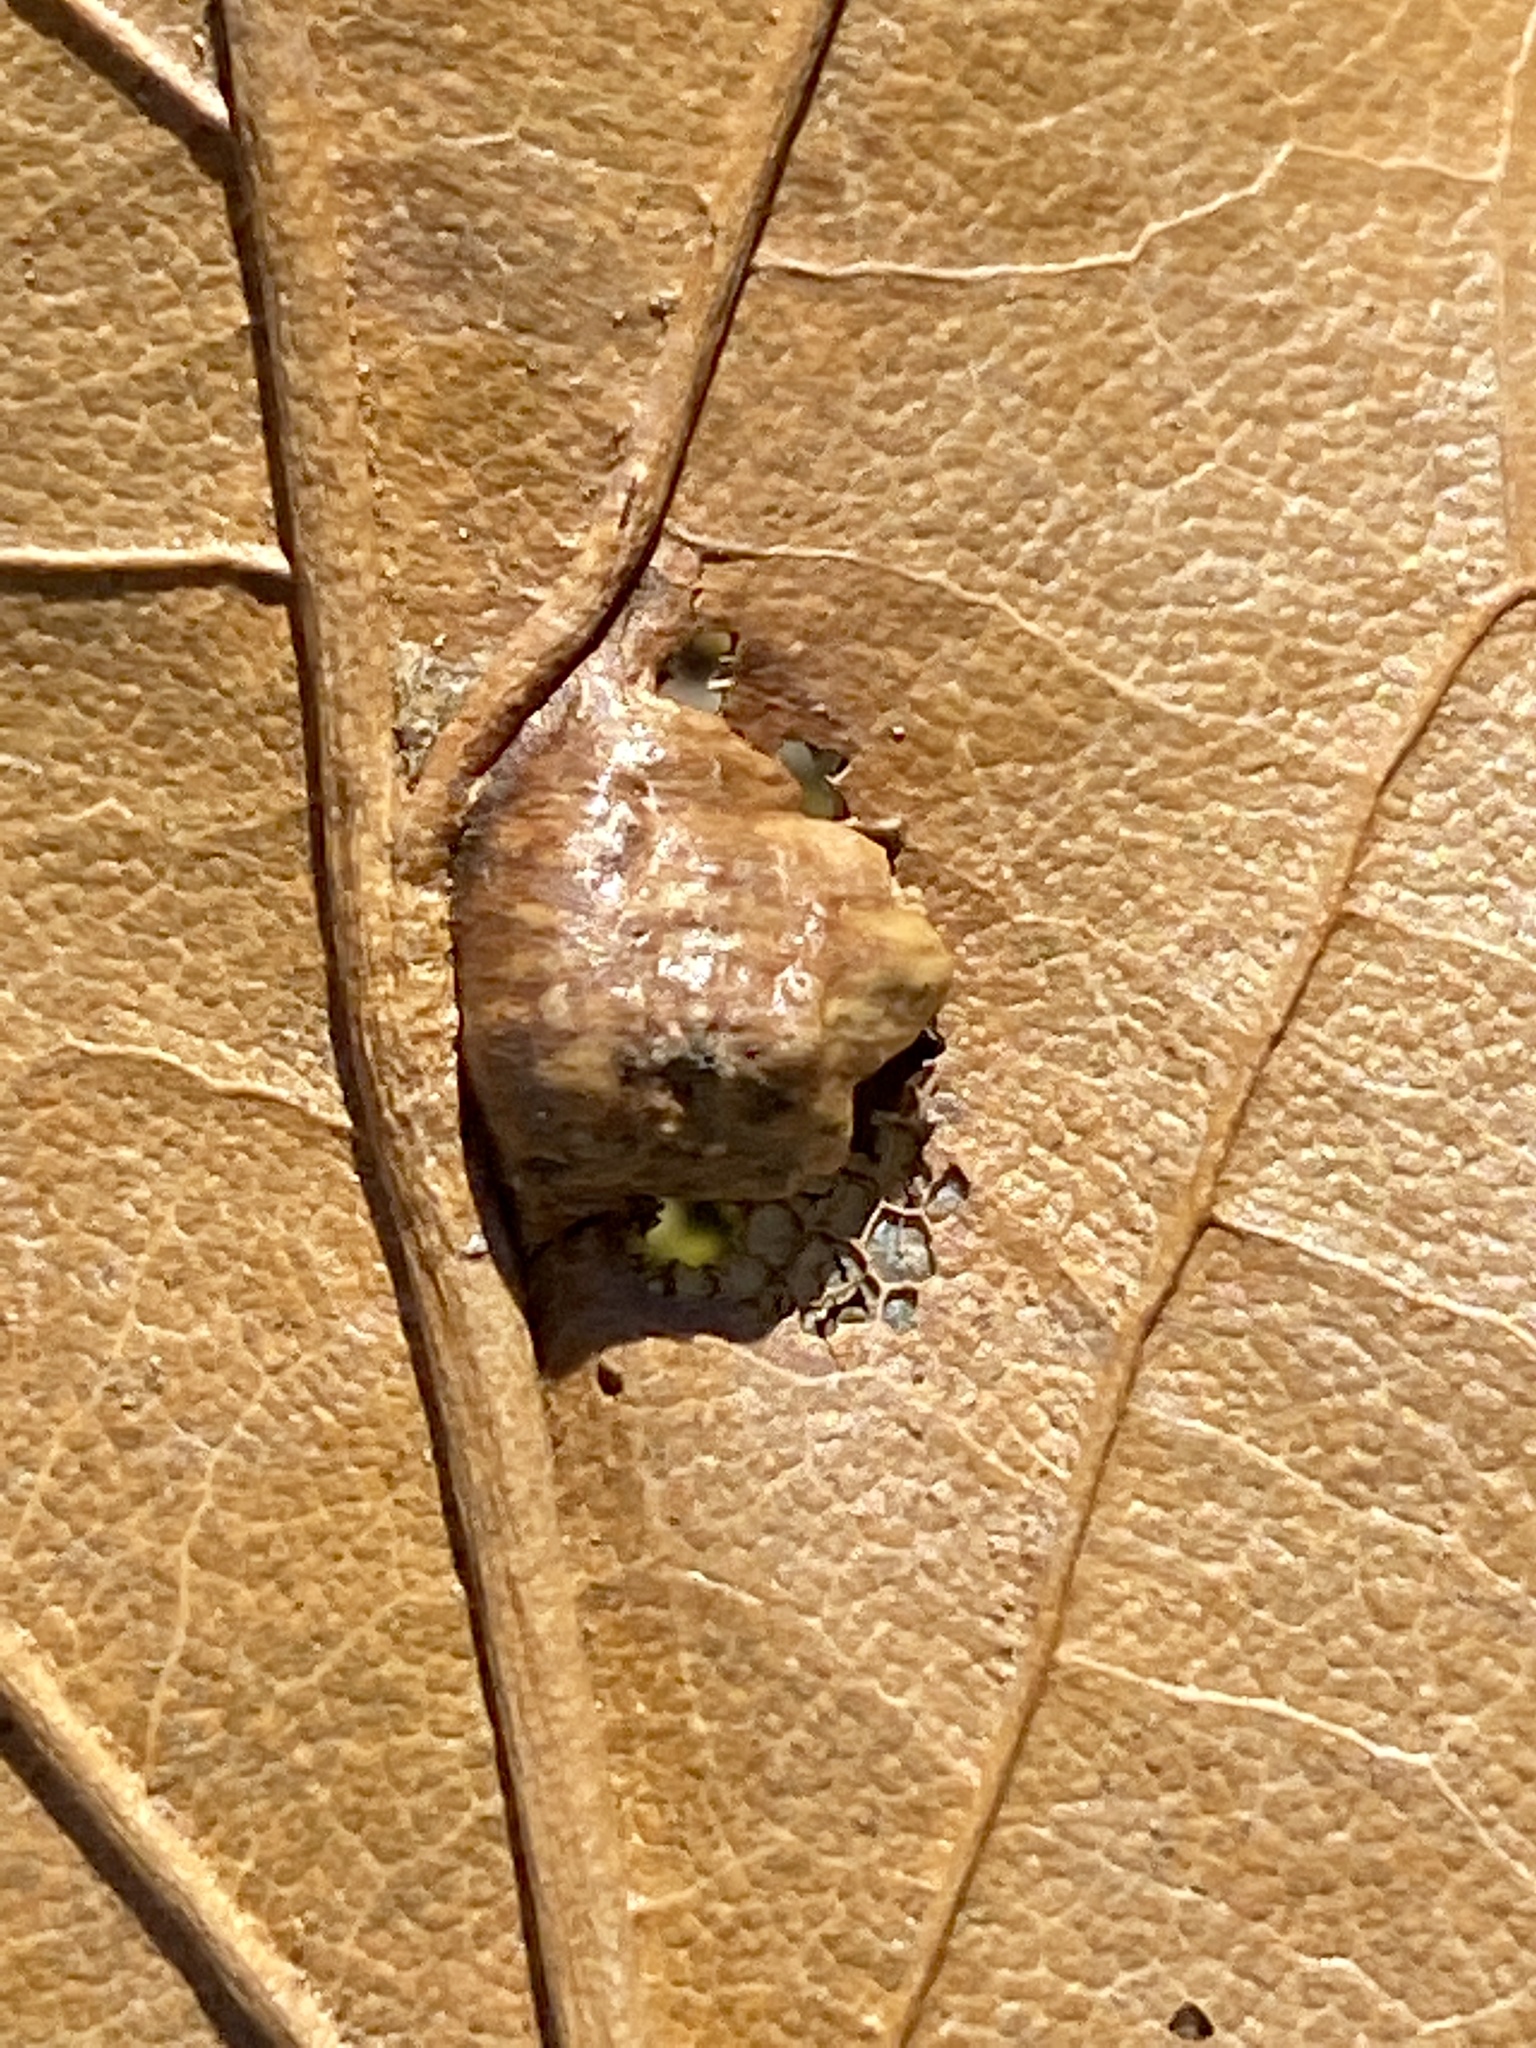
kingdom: Animalia
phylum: Arthropoda
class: Insecta
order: Diptera
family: Cecidomyiidae
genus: Macrodiplosis
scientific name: Macrodiplosis majalis
